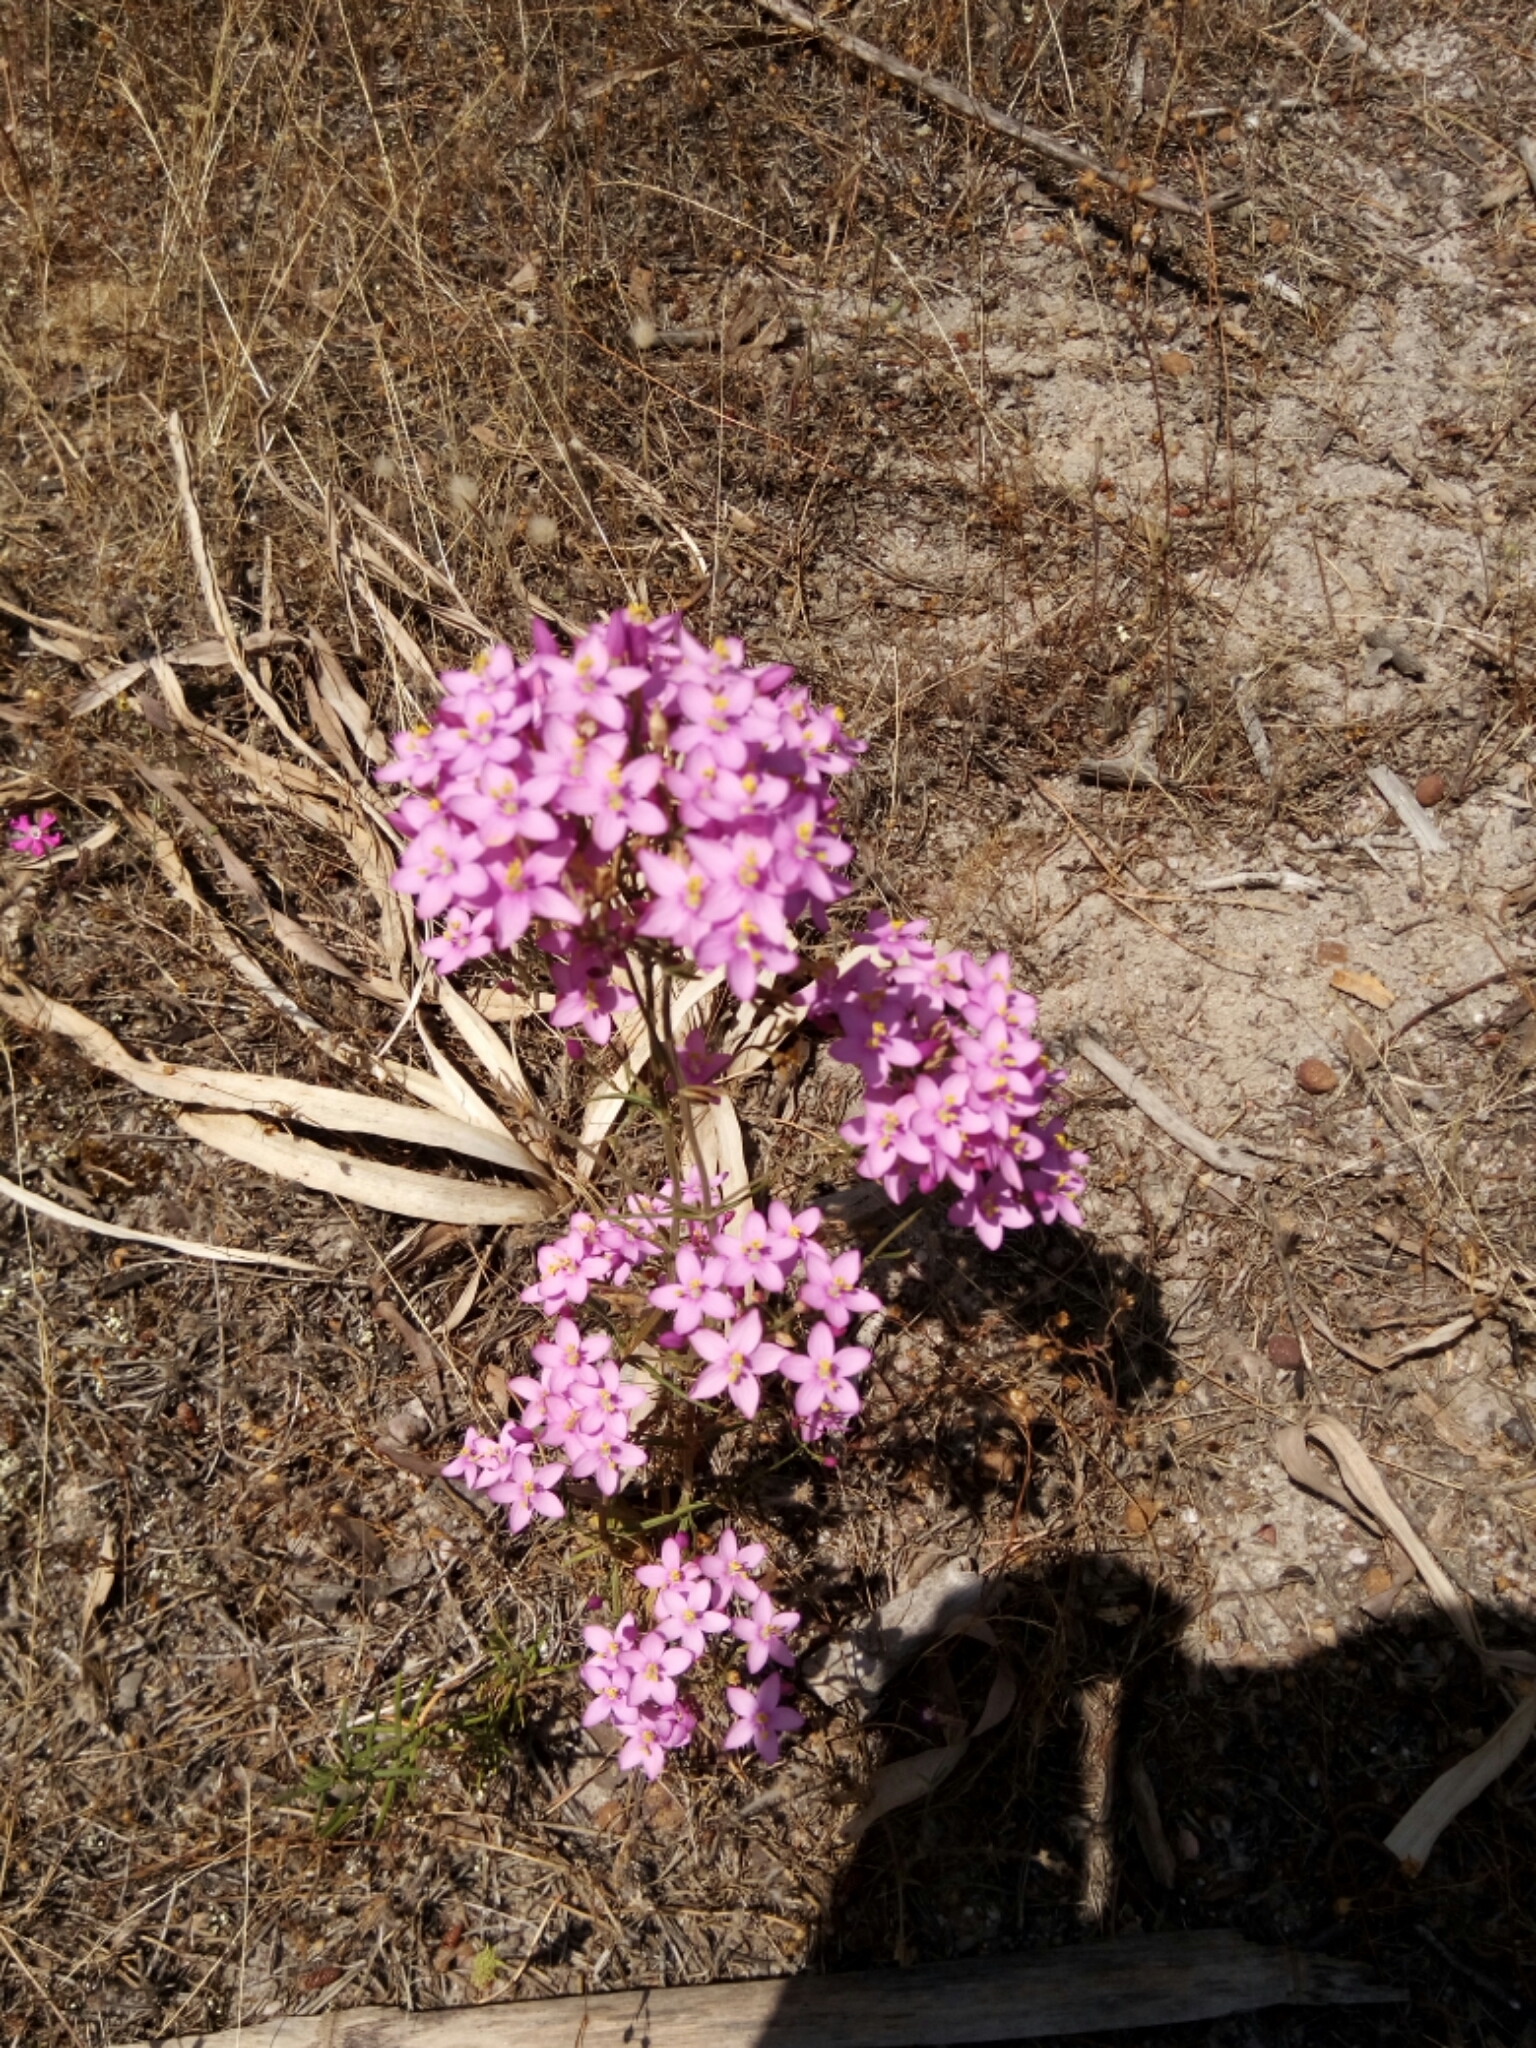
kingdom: Plantae
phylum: Tracheophyta
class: Magnoliopsida
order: Gentianales
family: Gentianaceae
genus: Centaurium
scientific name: Centaurium erythraea
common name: Common centaury
